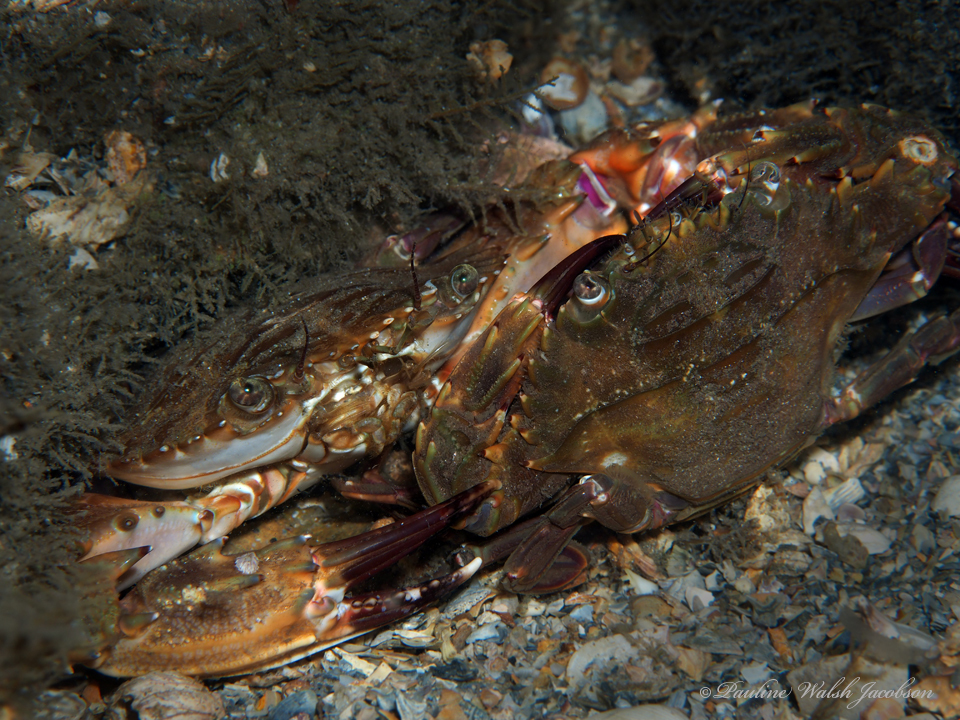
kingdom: Animalia
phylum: Arthropoda
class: Malacostraca
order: Decapoda
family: Portunidae
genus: Charybdis
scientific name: Charybdis hellerii
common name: Spiny hands
